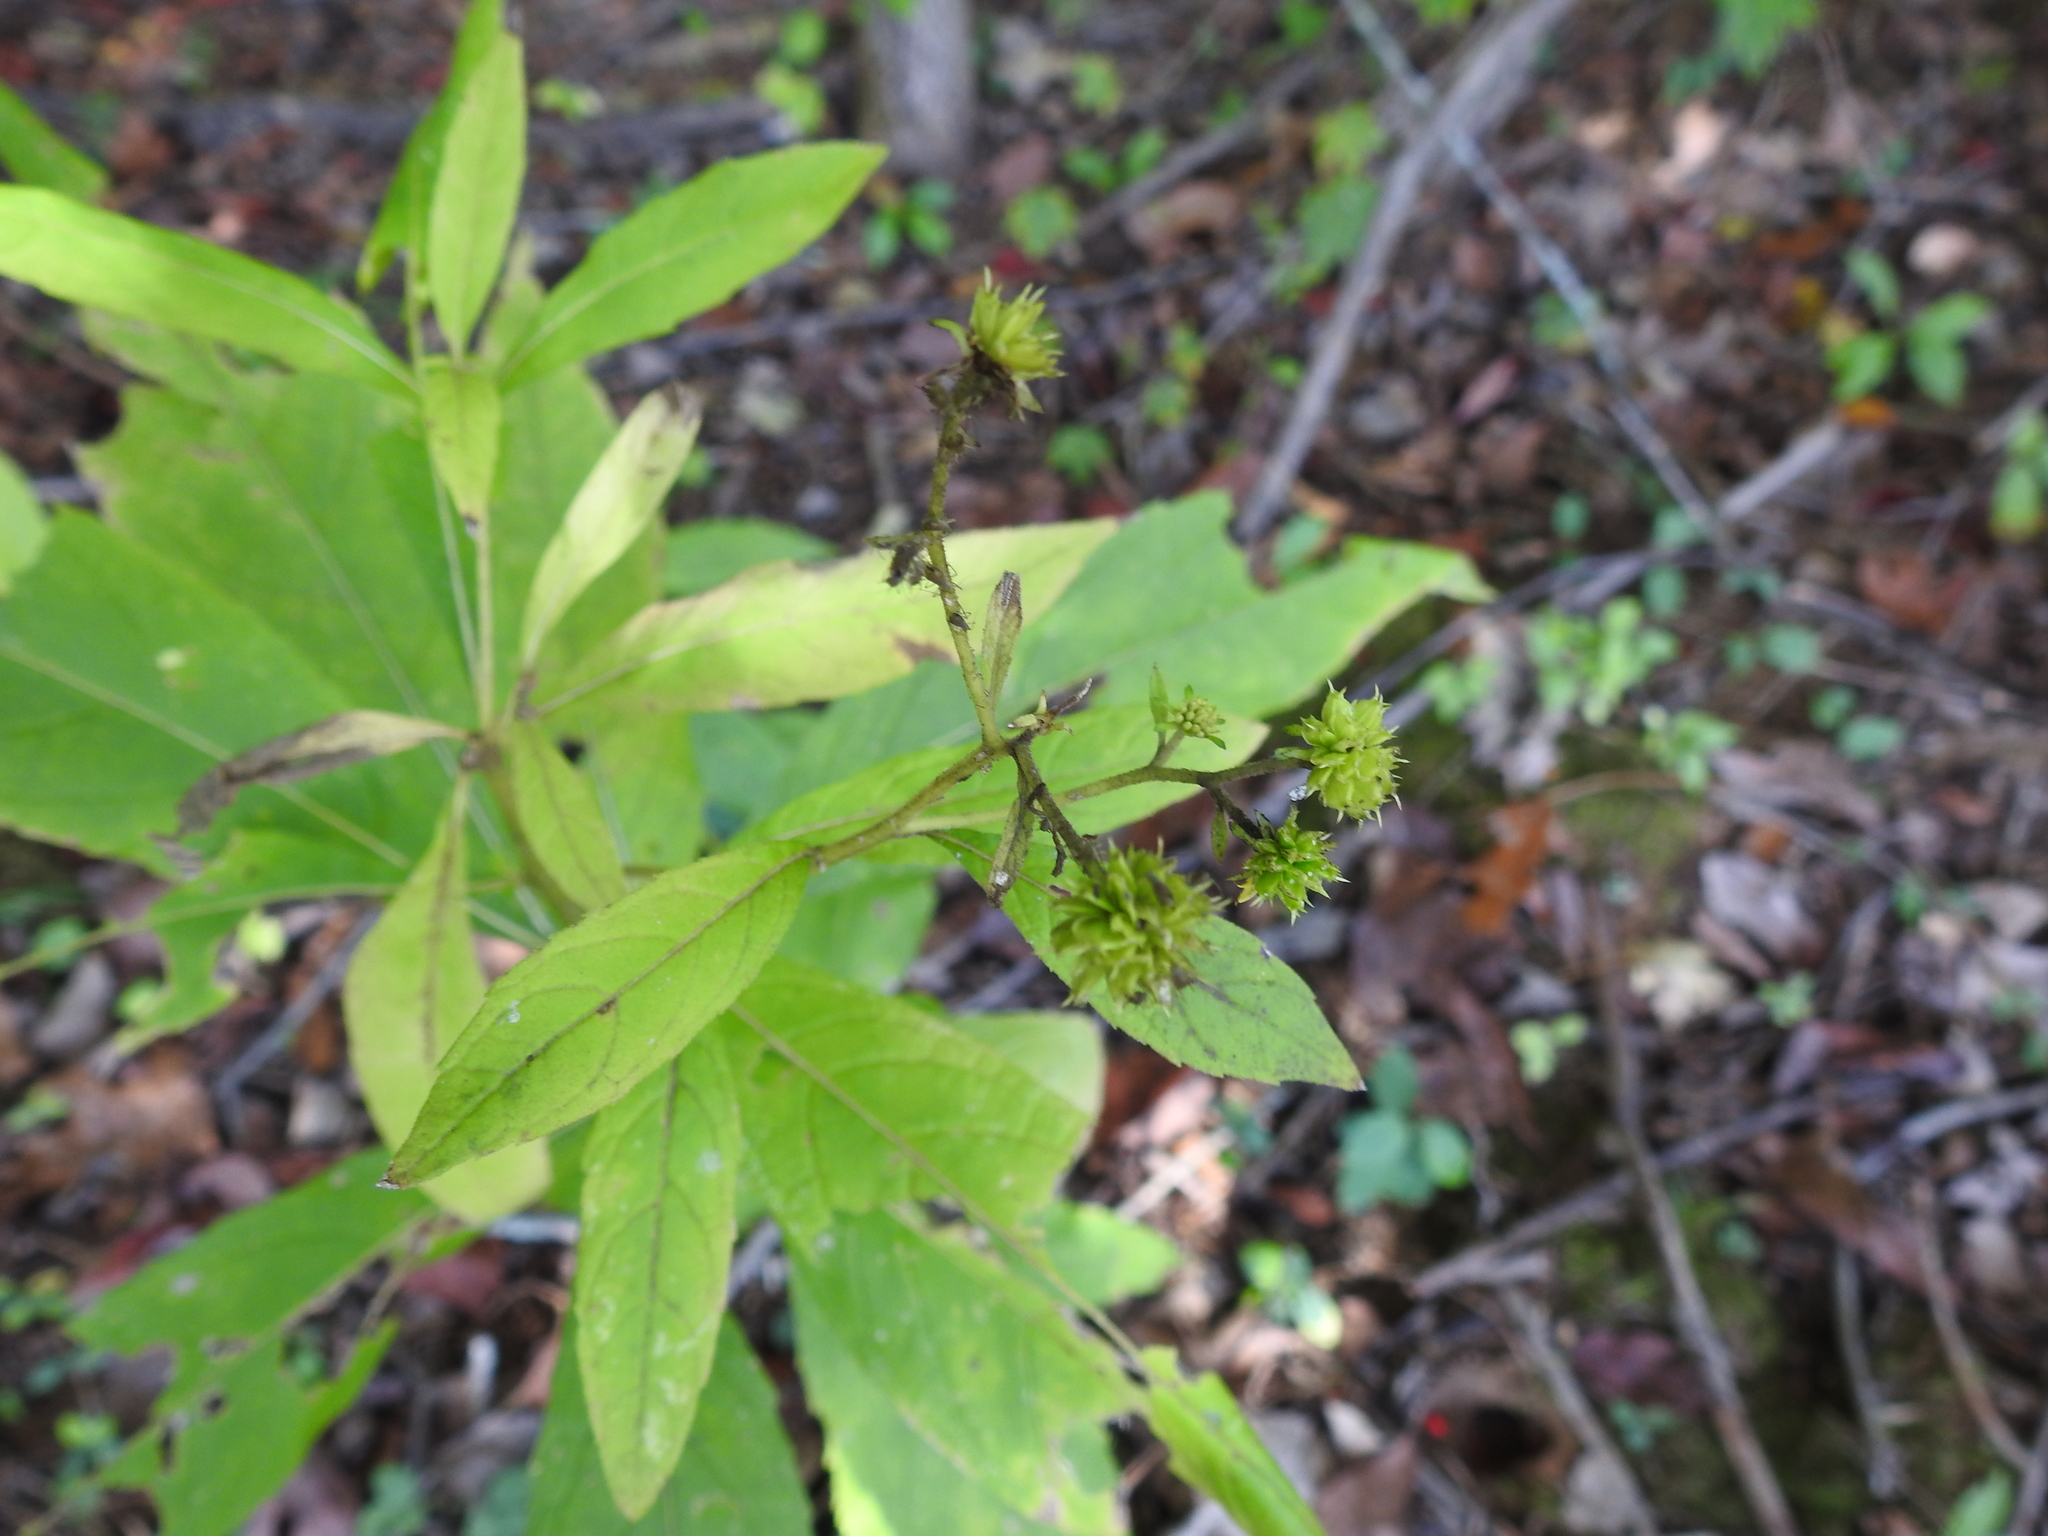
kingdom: Plantae
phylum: Tracheophyta
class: Magnoliopsida
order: Asterales
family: Asteraceae
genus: Verbesina
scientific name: Verbesina alternifolia
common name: Wingstem
